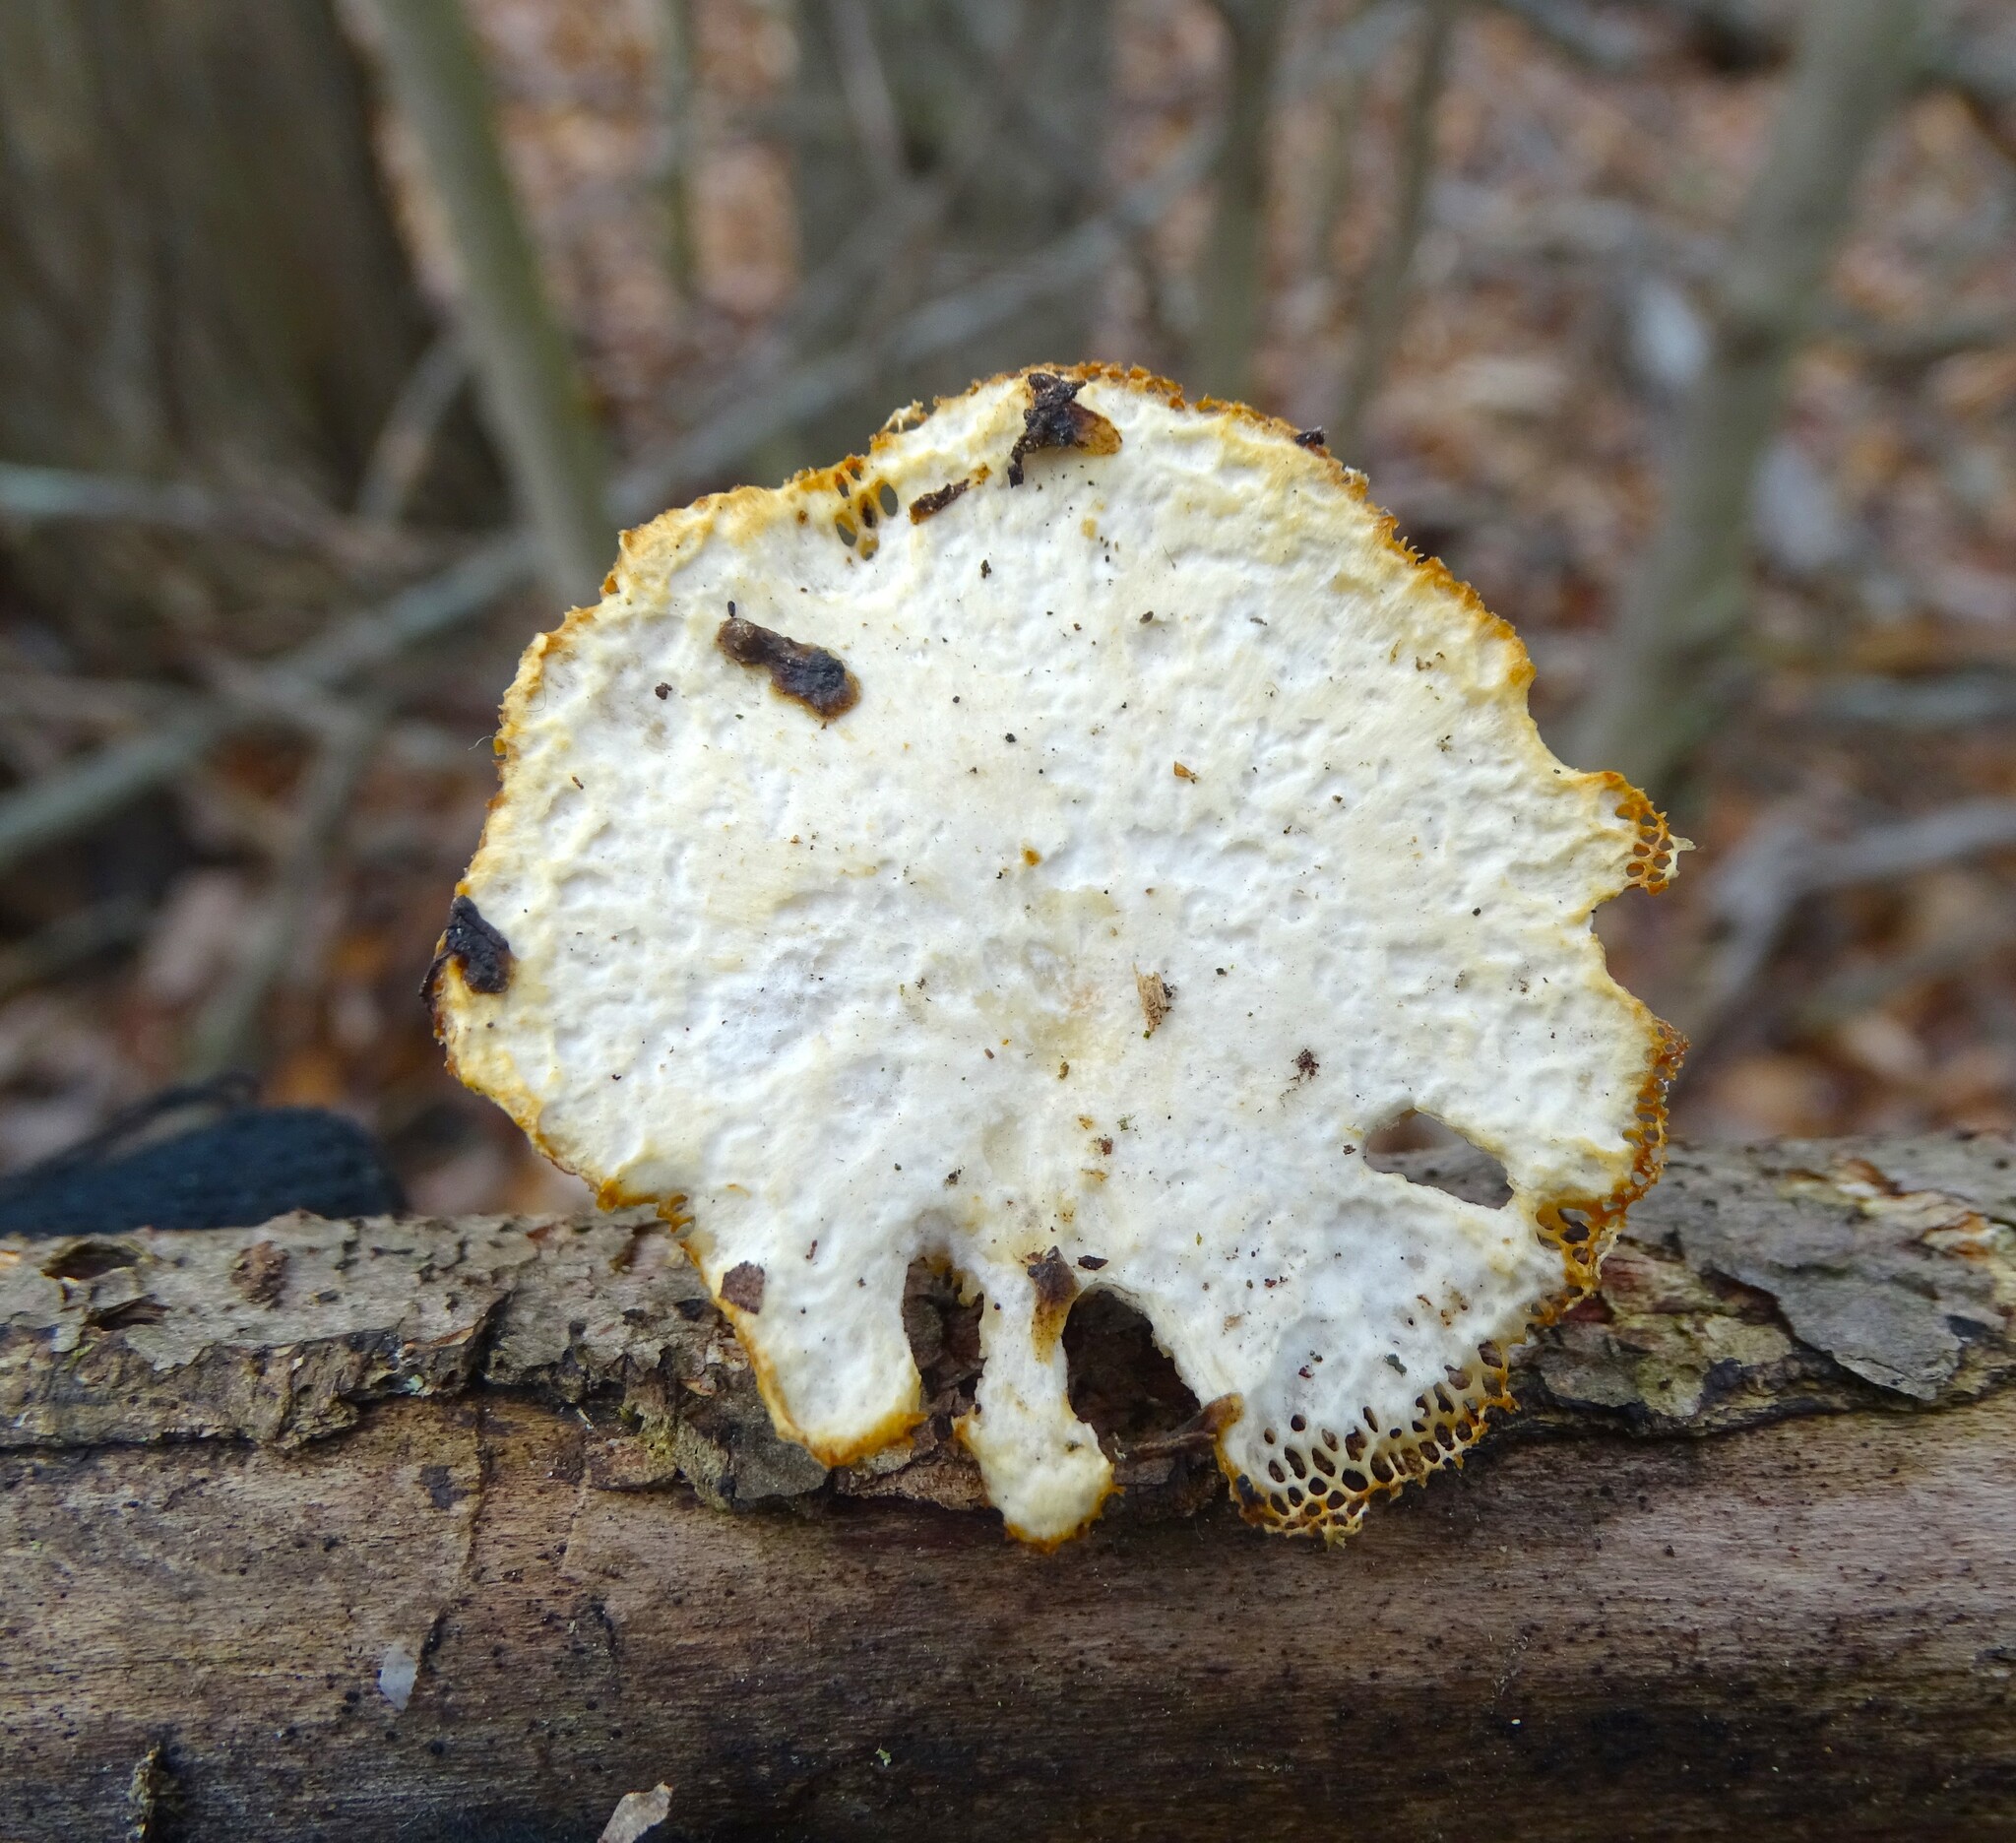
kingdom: Fungi
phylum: Basidiomycota
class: Agaricomycetes
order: Polyporales
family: Polyporaceae
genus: Neofavolus
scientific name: Neofavolus americanus
